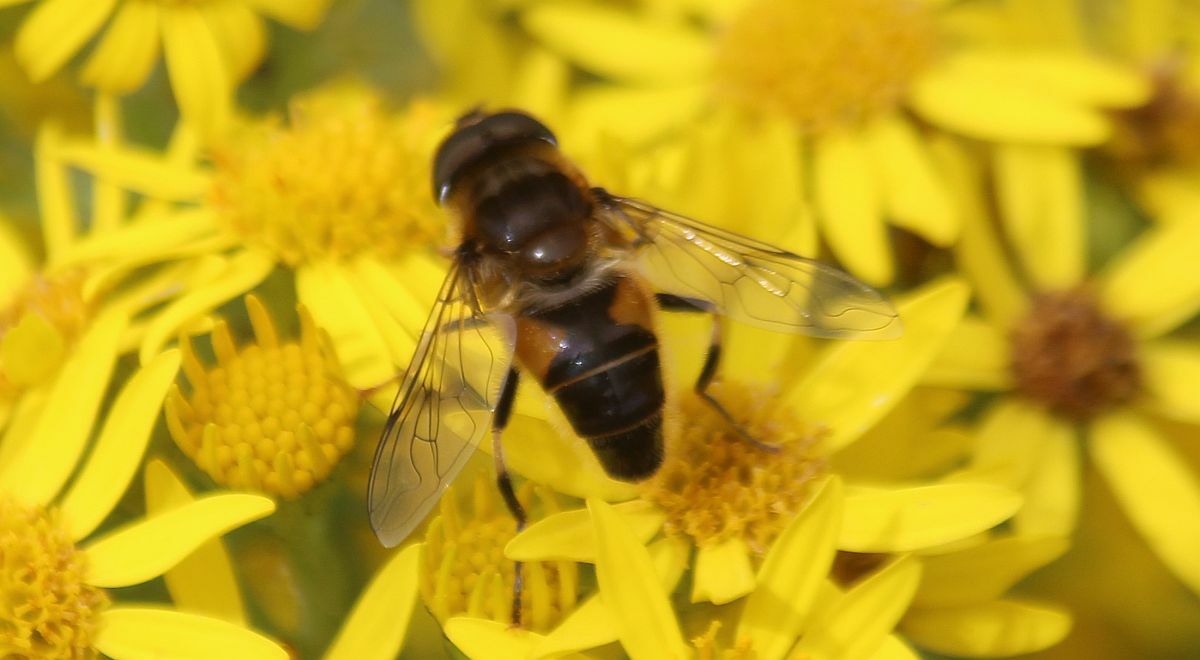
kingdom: Animalia
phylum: Arthropoda
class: Insecta
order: Diptera
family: Syrphidae
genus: Eristalis
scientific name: Eristalis pertinax
